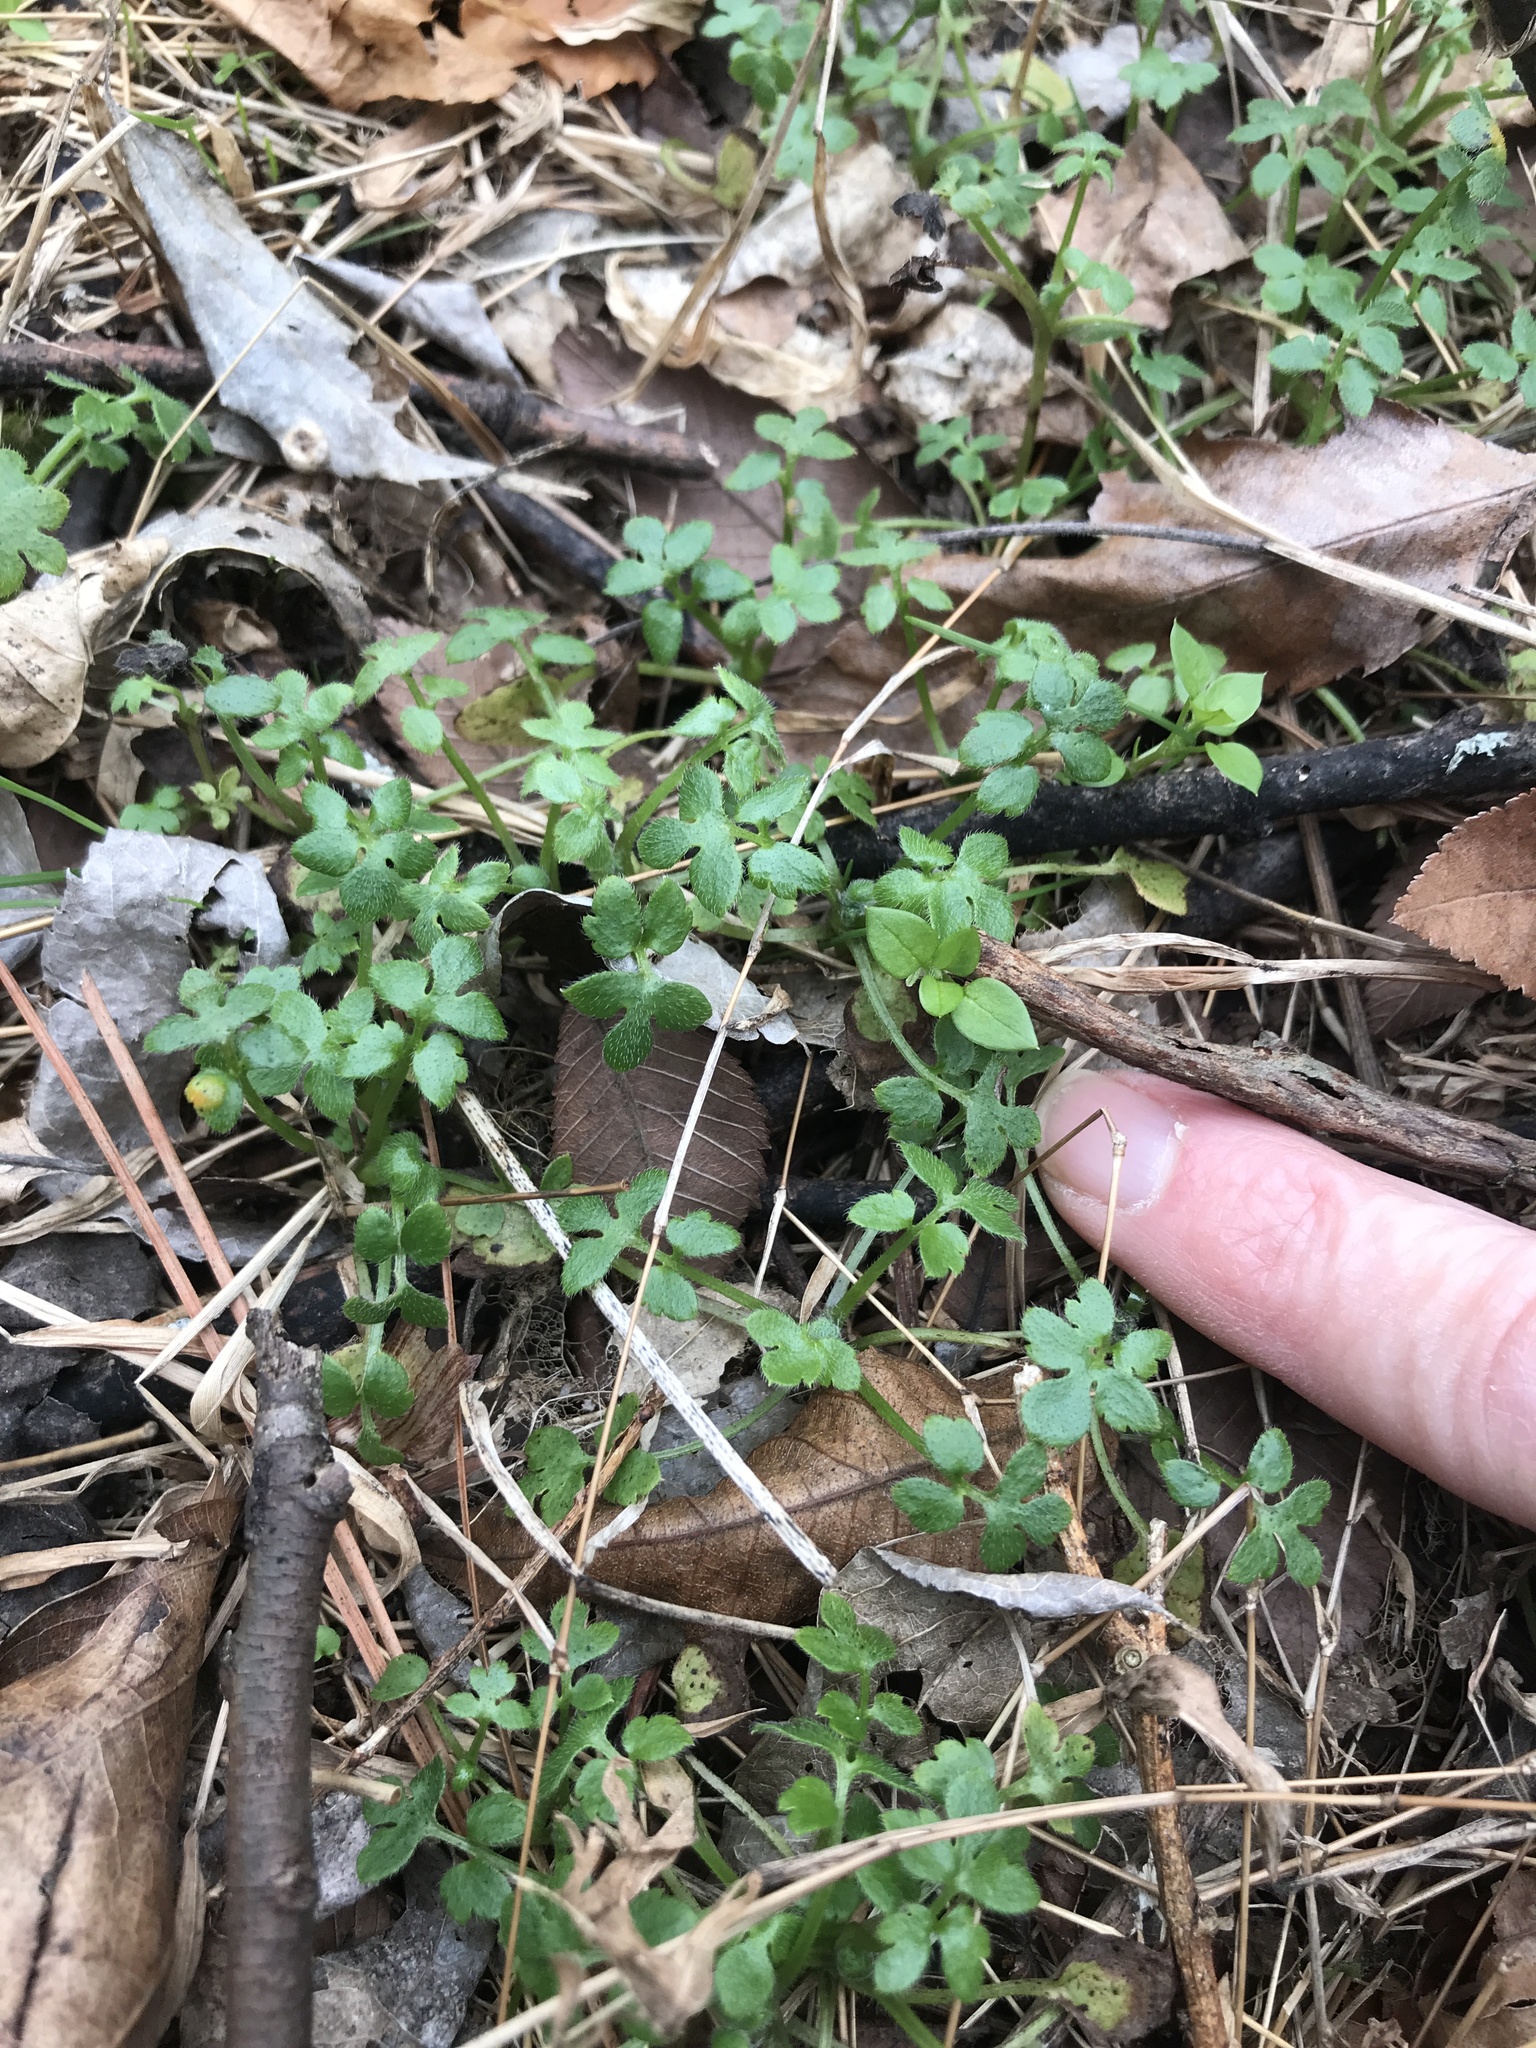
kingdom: Plantae
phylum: Tracheophyta
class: Magnoliopsida
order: Boraginales
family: Hydrophyllaceae
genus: Nemophila
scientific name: Nemophila aphylla
